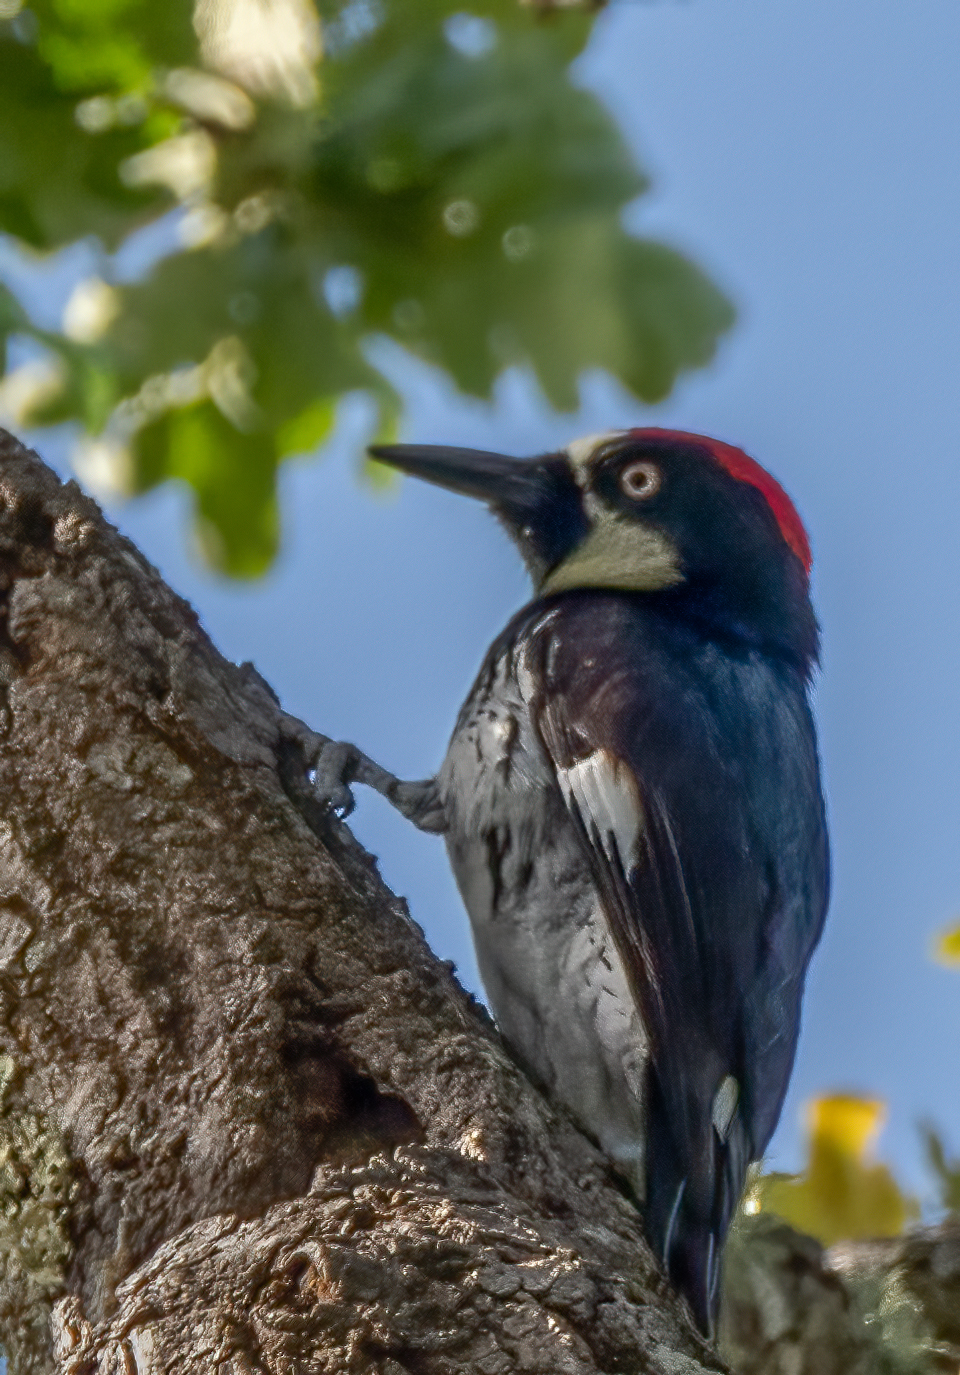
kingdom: Animalia
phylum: Chordata
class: Aves
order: Piciformes
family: Picidae
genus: Melanerpes
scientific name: Melanerpes formicivorus
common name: Acorn woodpecker
